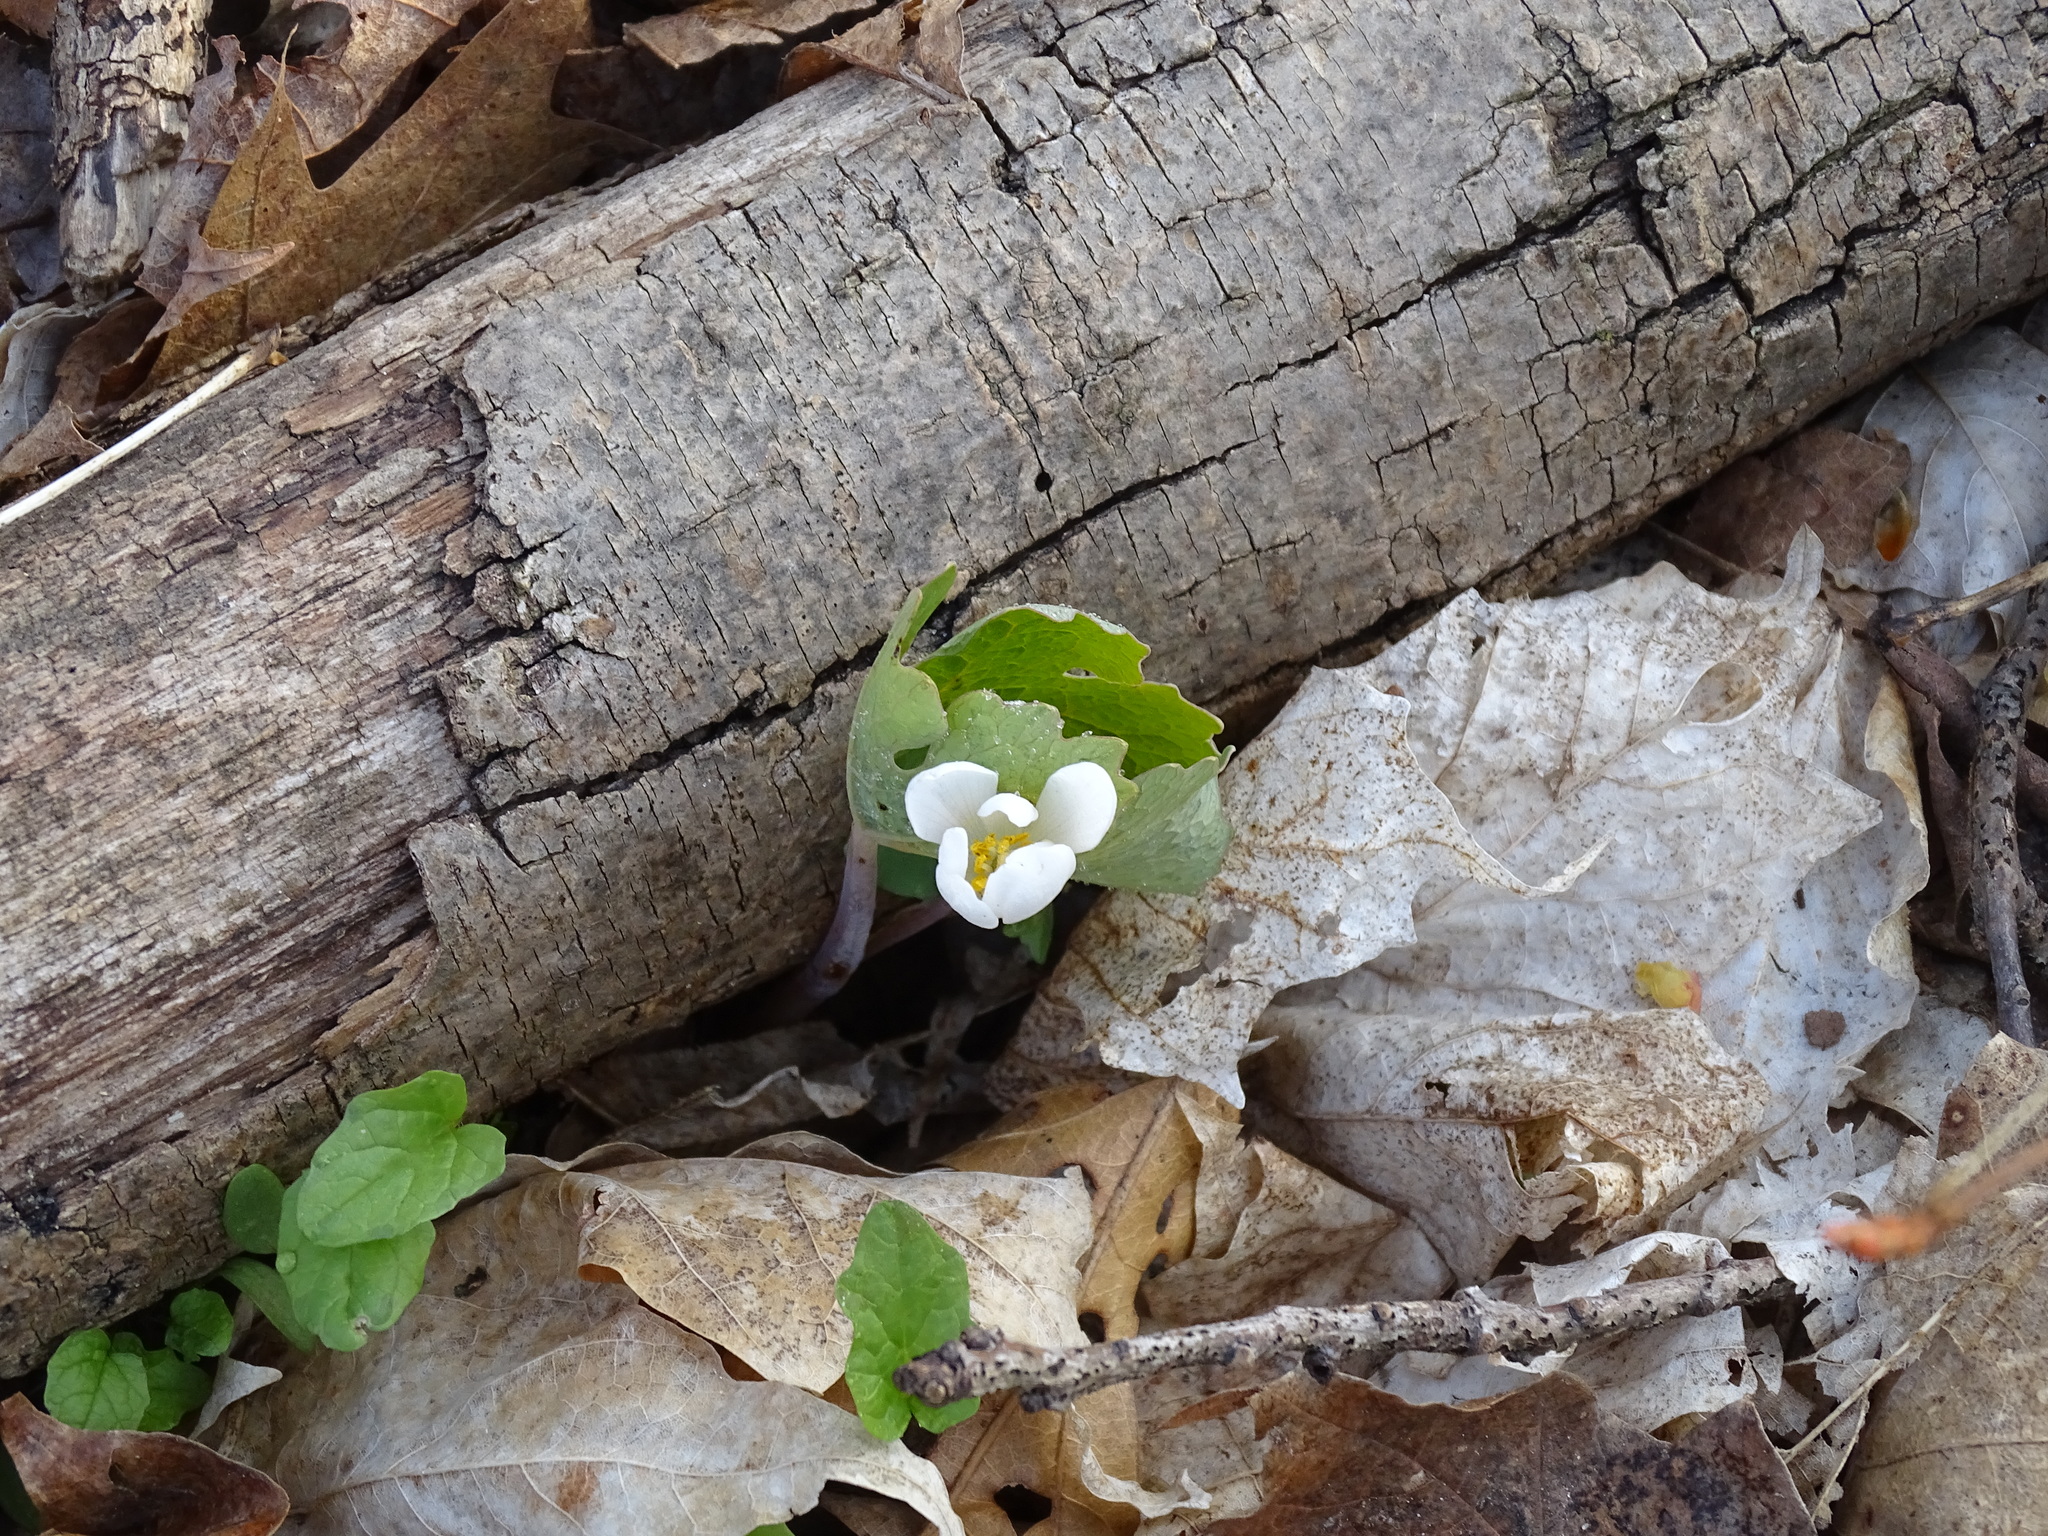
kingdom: Plantae
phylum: Tracheophyta
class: Magnoliopsida
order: Ranunculales
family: Papaveraceae
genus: Sanguinaria
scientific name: Sanguinaria canadensis
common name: Bloodroot
